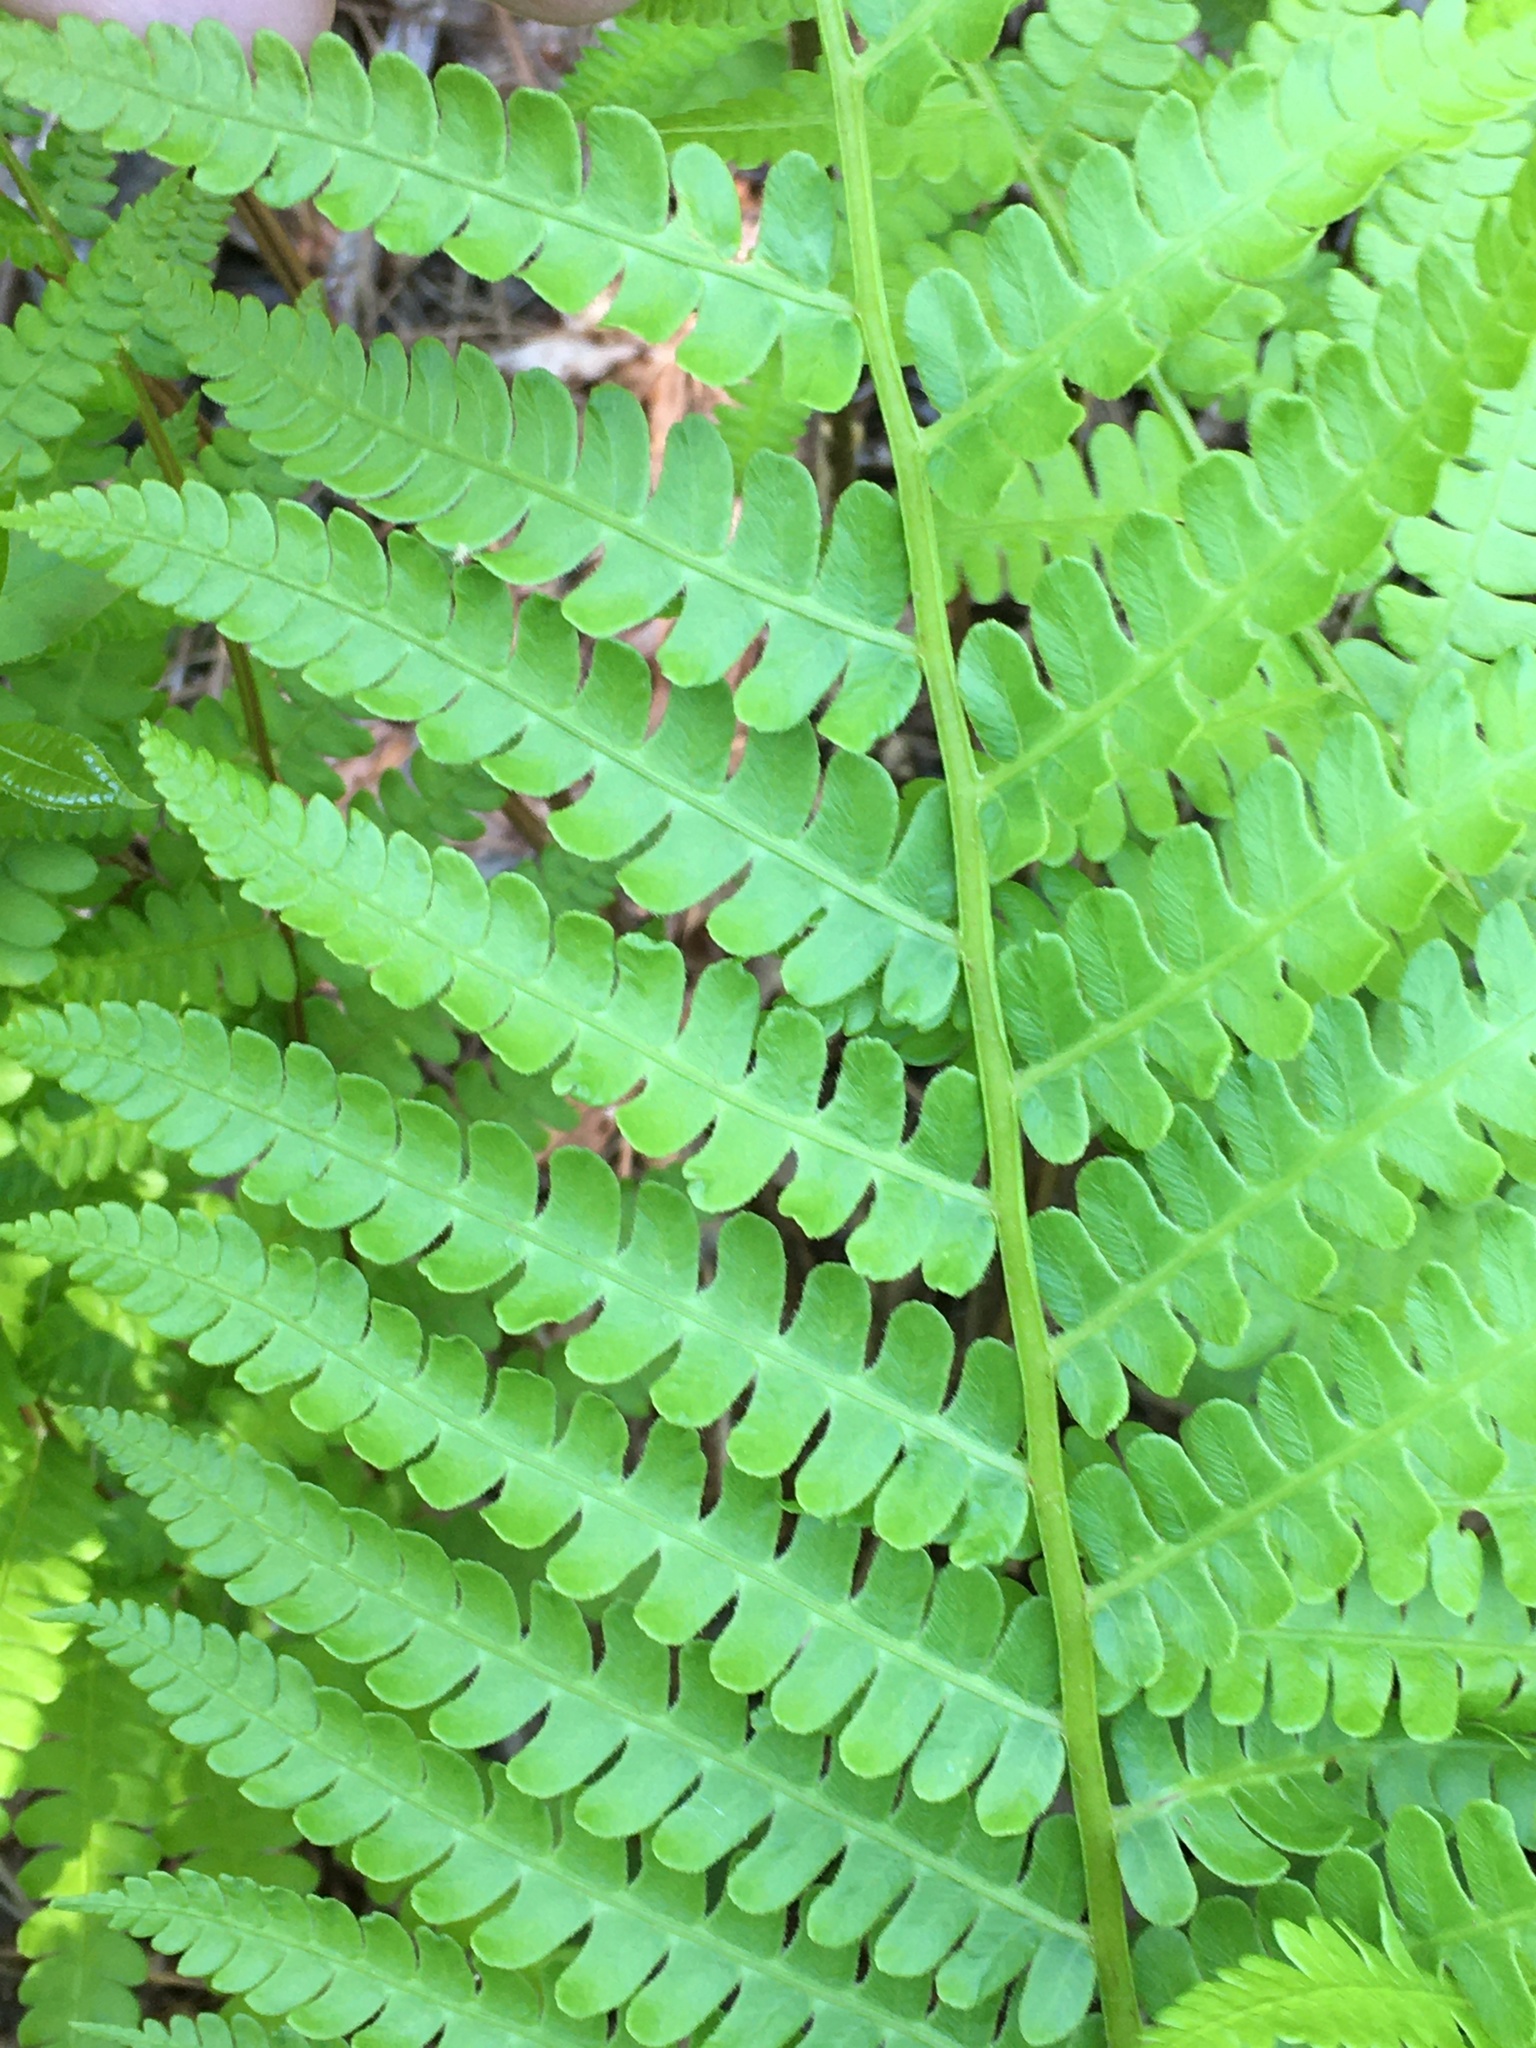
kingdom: Plantae
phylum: Tracheophyta
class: Polypodiopsida
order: Osmundales
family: Osmundaceae
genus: Osmundastrum
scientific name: Osmundastrum cinnamomeum
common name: Cinnamon fern
